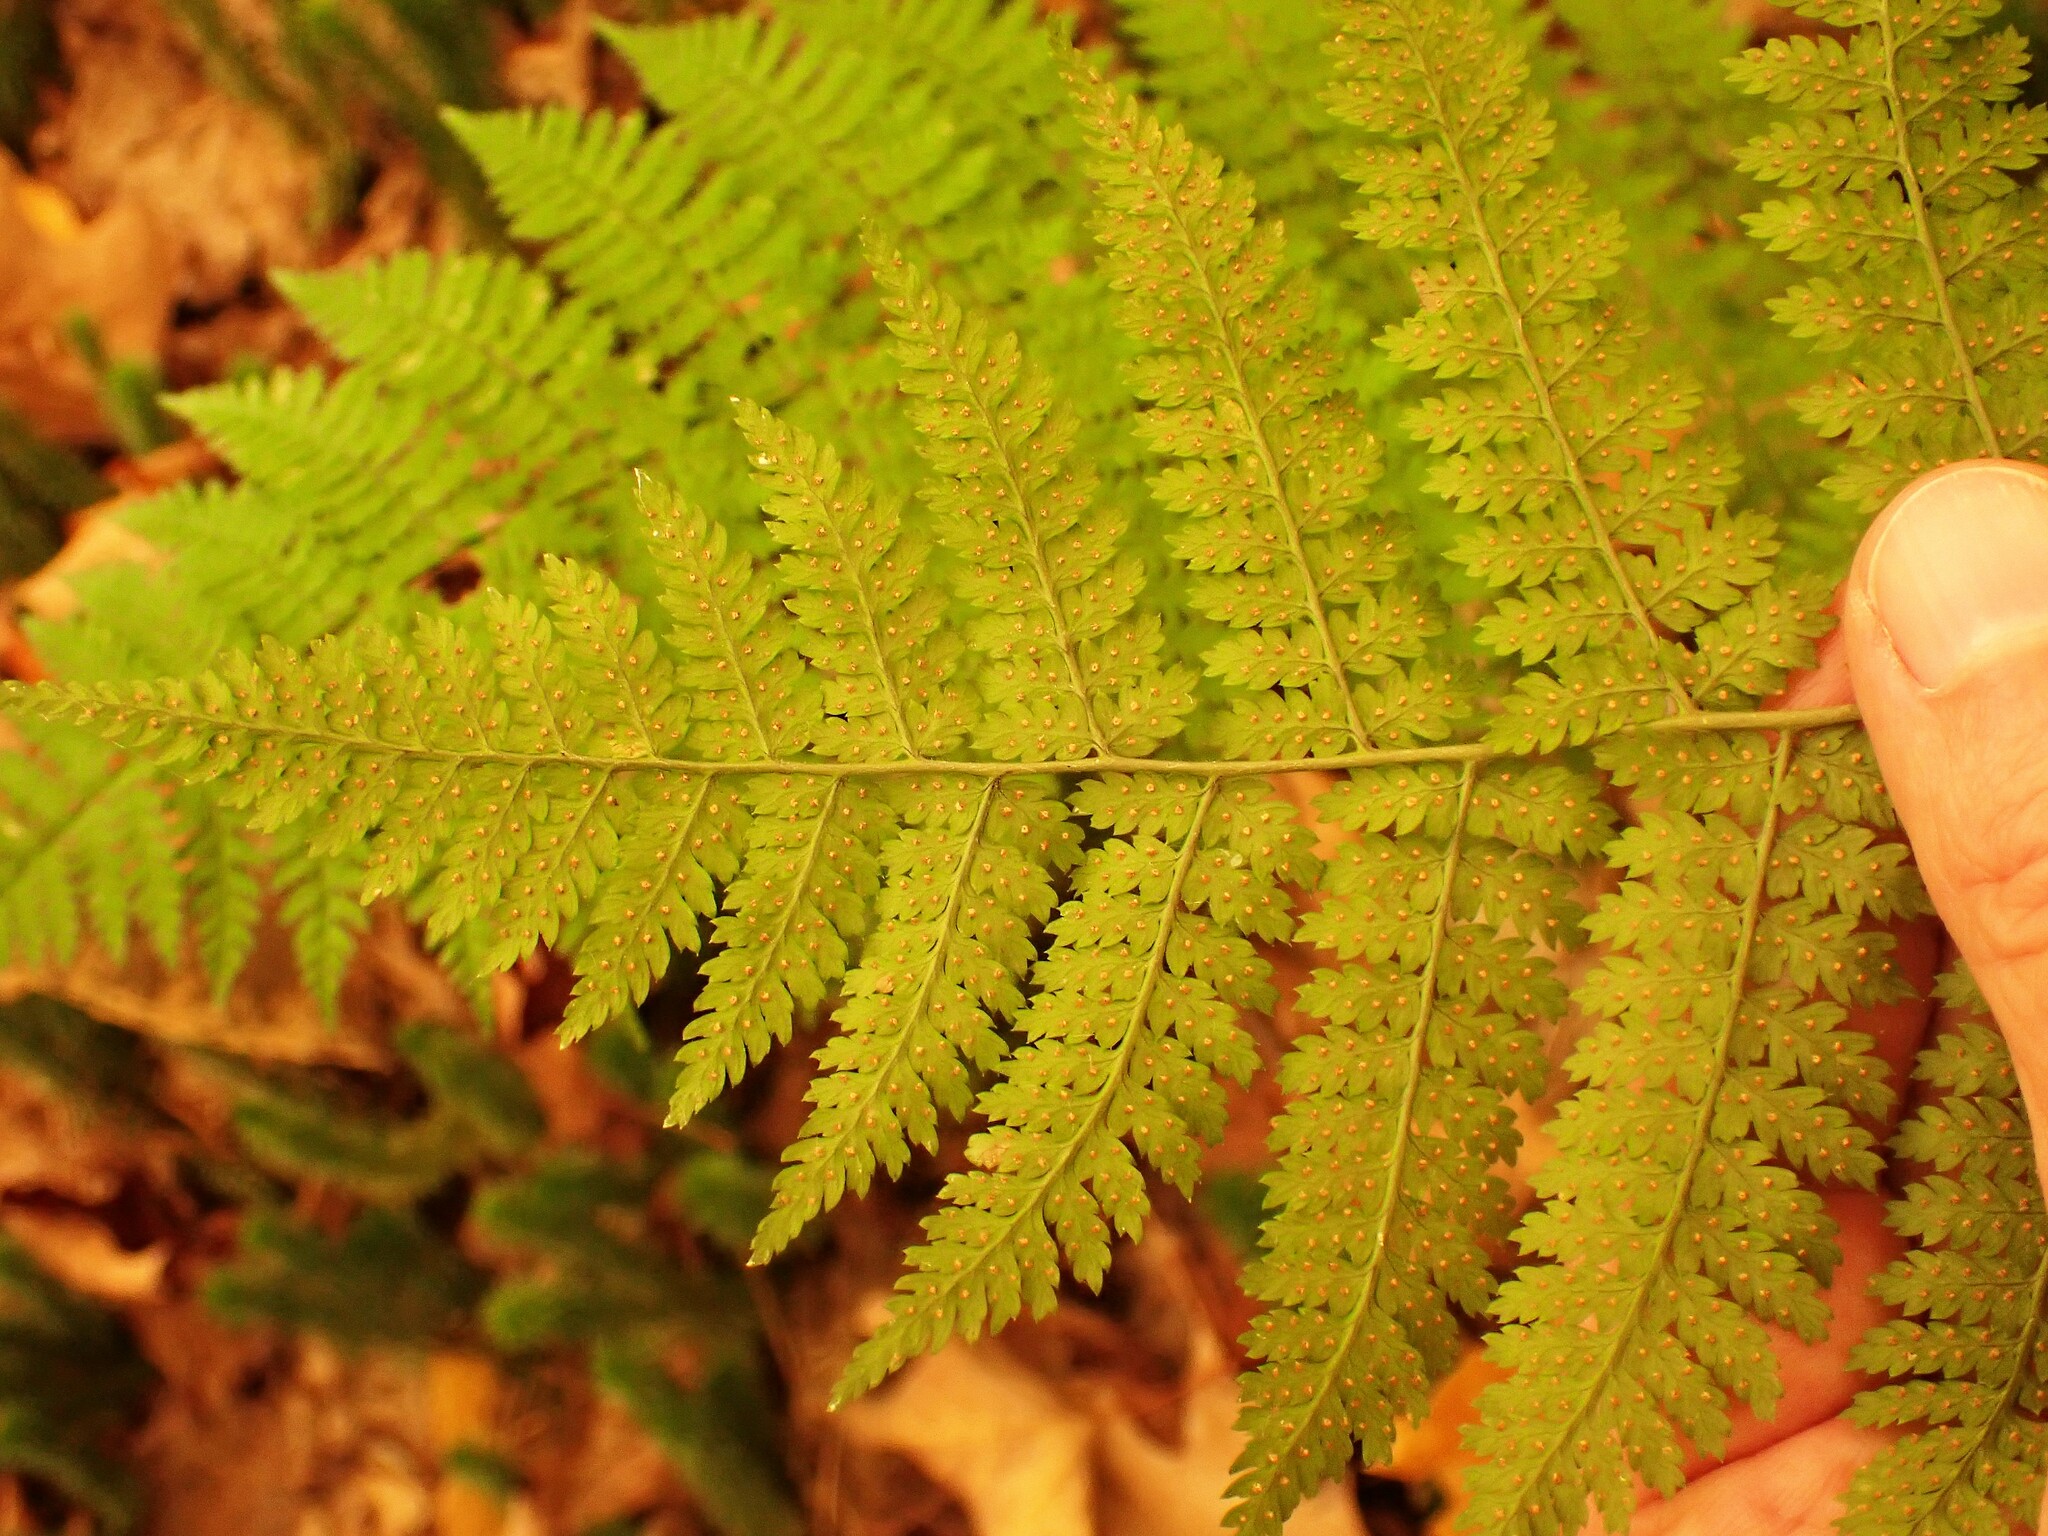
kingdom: Plantae
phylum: Tracheophyta
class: Polypodiopsida
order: Polypodiales
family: Dryopteridaceae
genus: Dryopteris
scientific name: Dryopteris intermedia
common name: Evergreen wood fern
